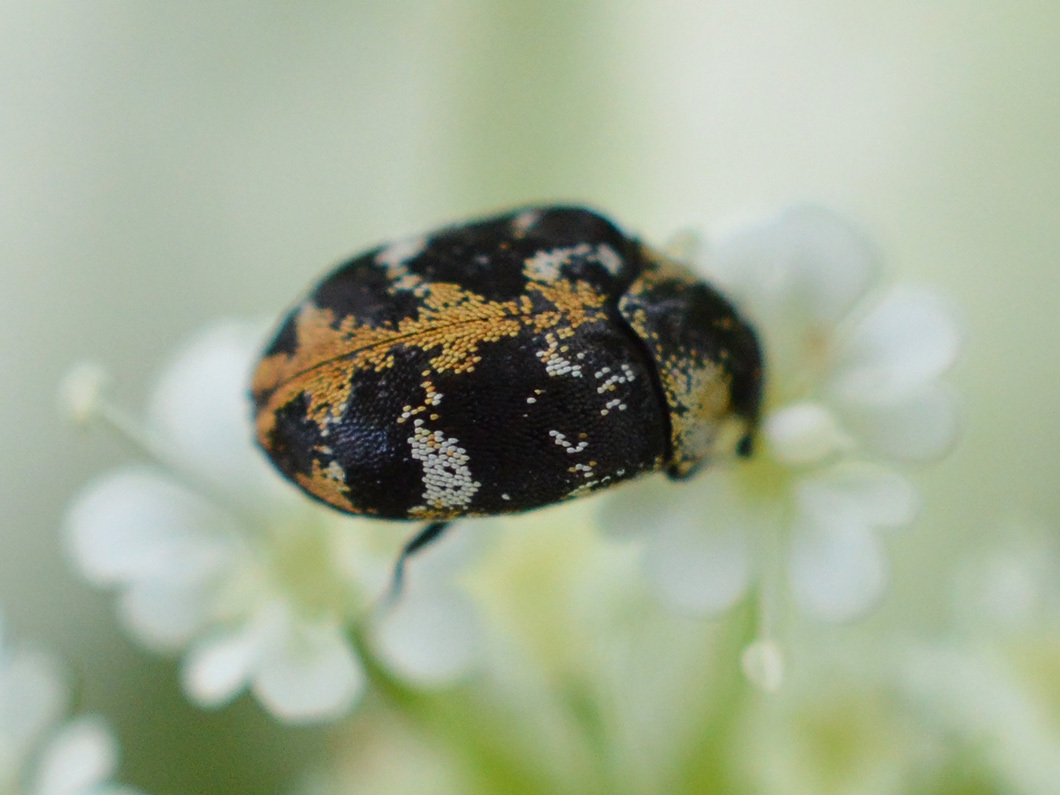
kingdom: Animalia
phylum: Arthropoda
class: Insecta
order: Coleoptera
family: Dermestidae
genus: Anthrenus
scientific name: Anthrenus scrophulariae
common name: Buffalo carpet beetle
